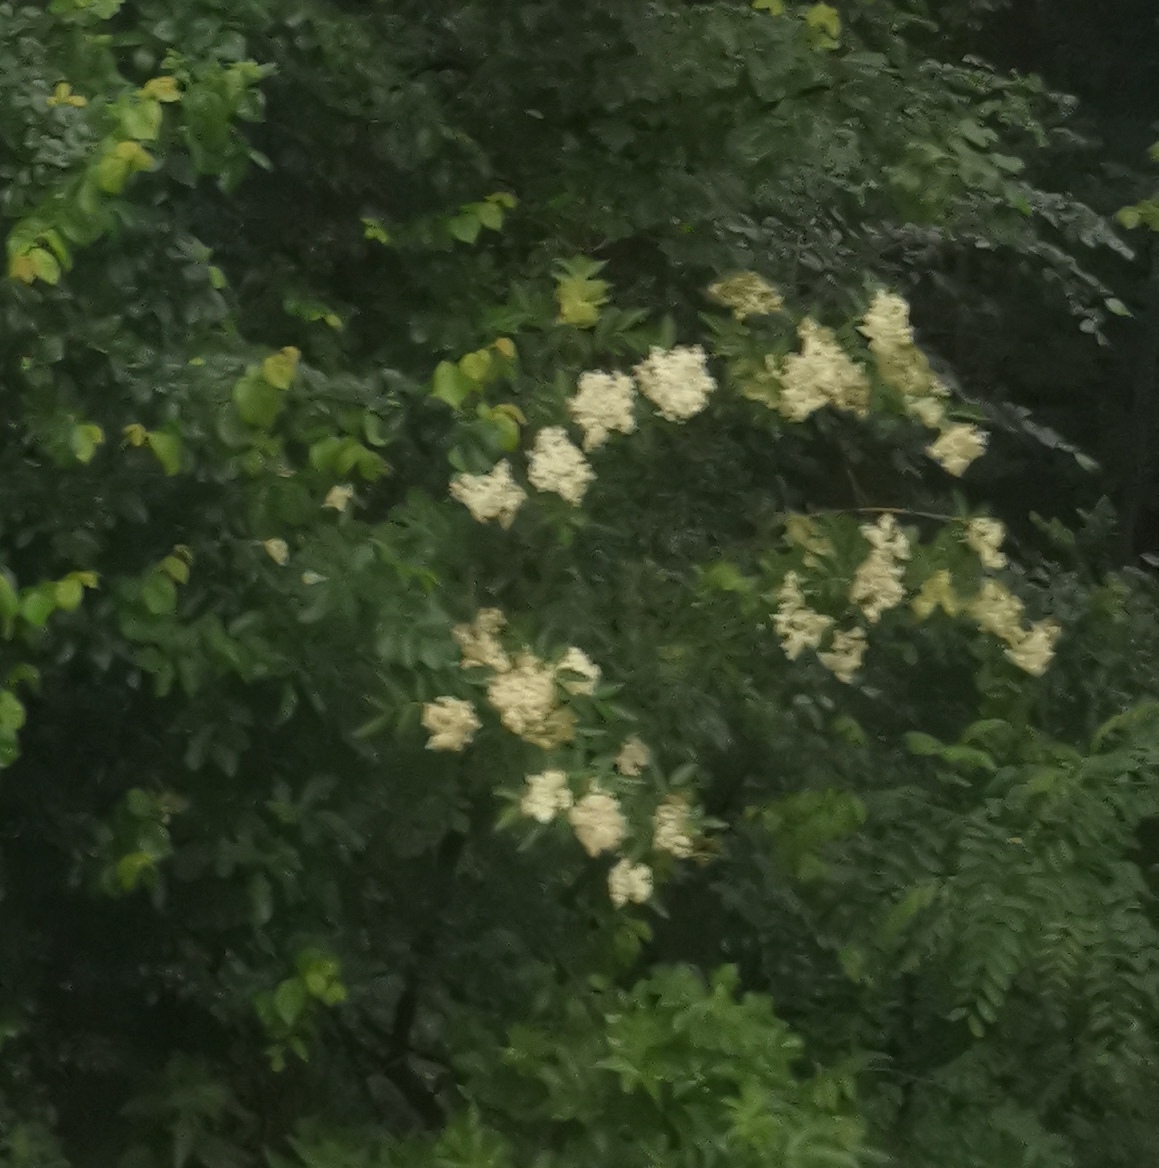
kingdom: Plantae
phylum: Tracheophyta
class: Magnoliopsida
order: Dipsacales
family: Viburnaceae
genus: Sambucus
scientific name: Sambucus nigra
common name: Elder
